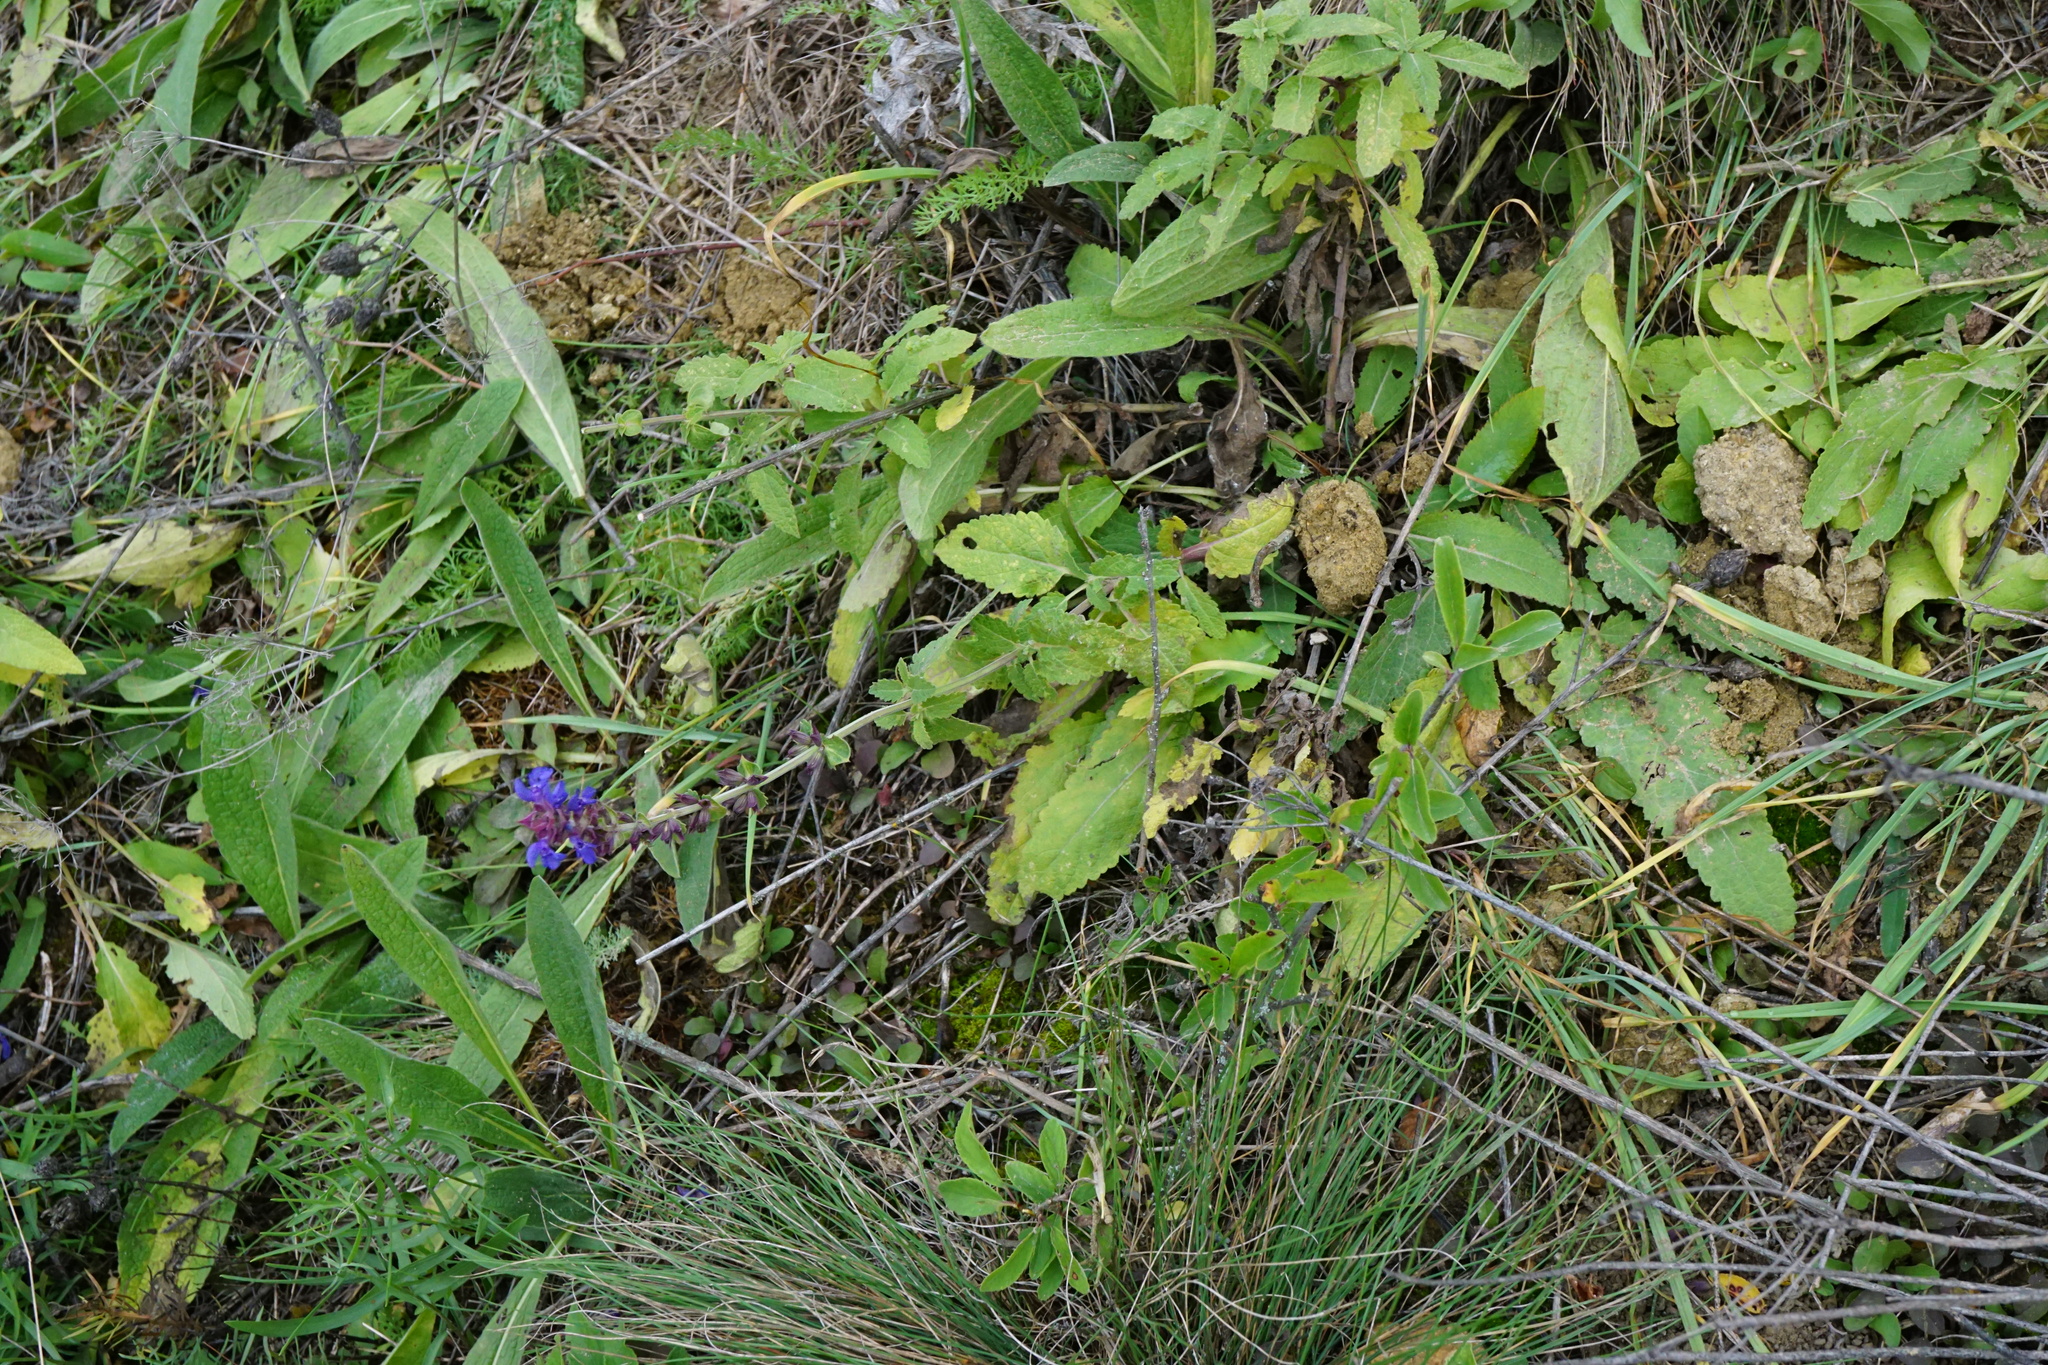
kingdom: Plantae
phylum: Tracheophyta
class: Magnoliopsida
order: Lamiales
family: Lamiaceae
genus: Salvia
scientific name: Salvia nemorosa
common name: Balkan clary
